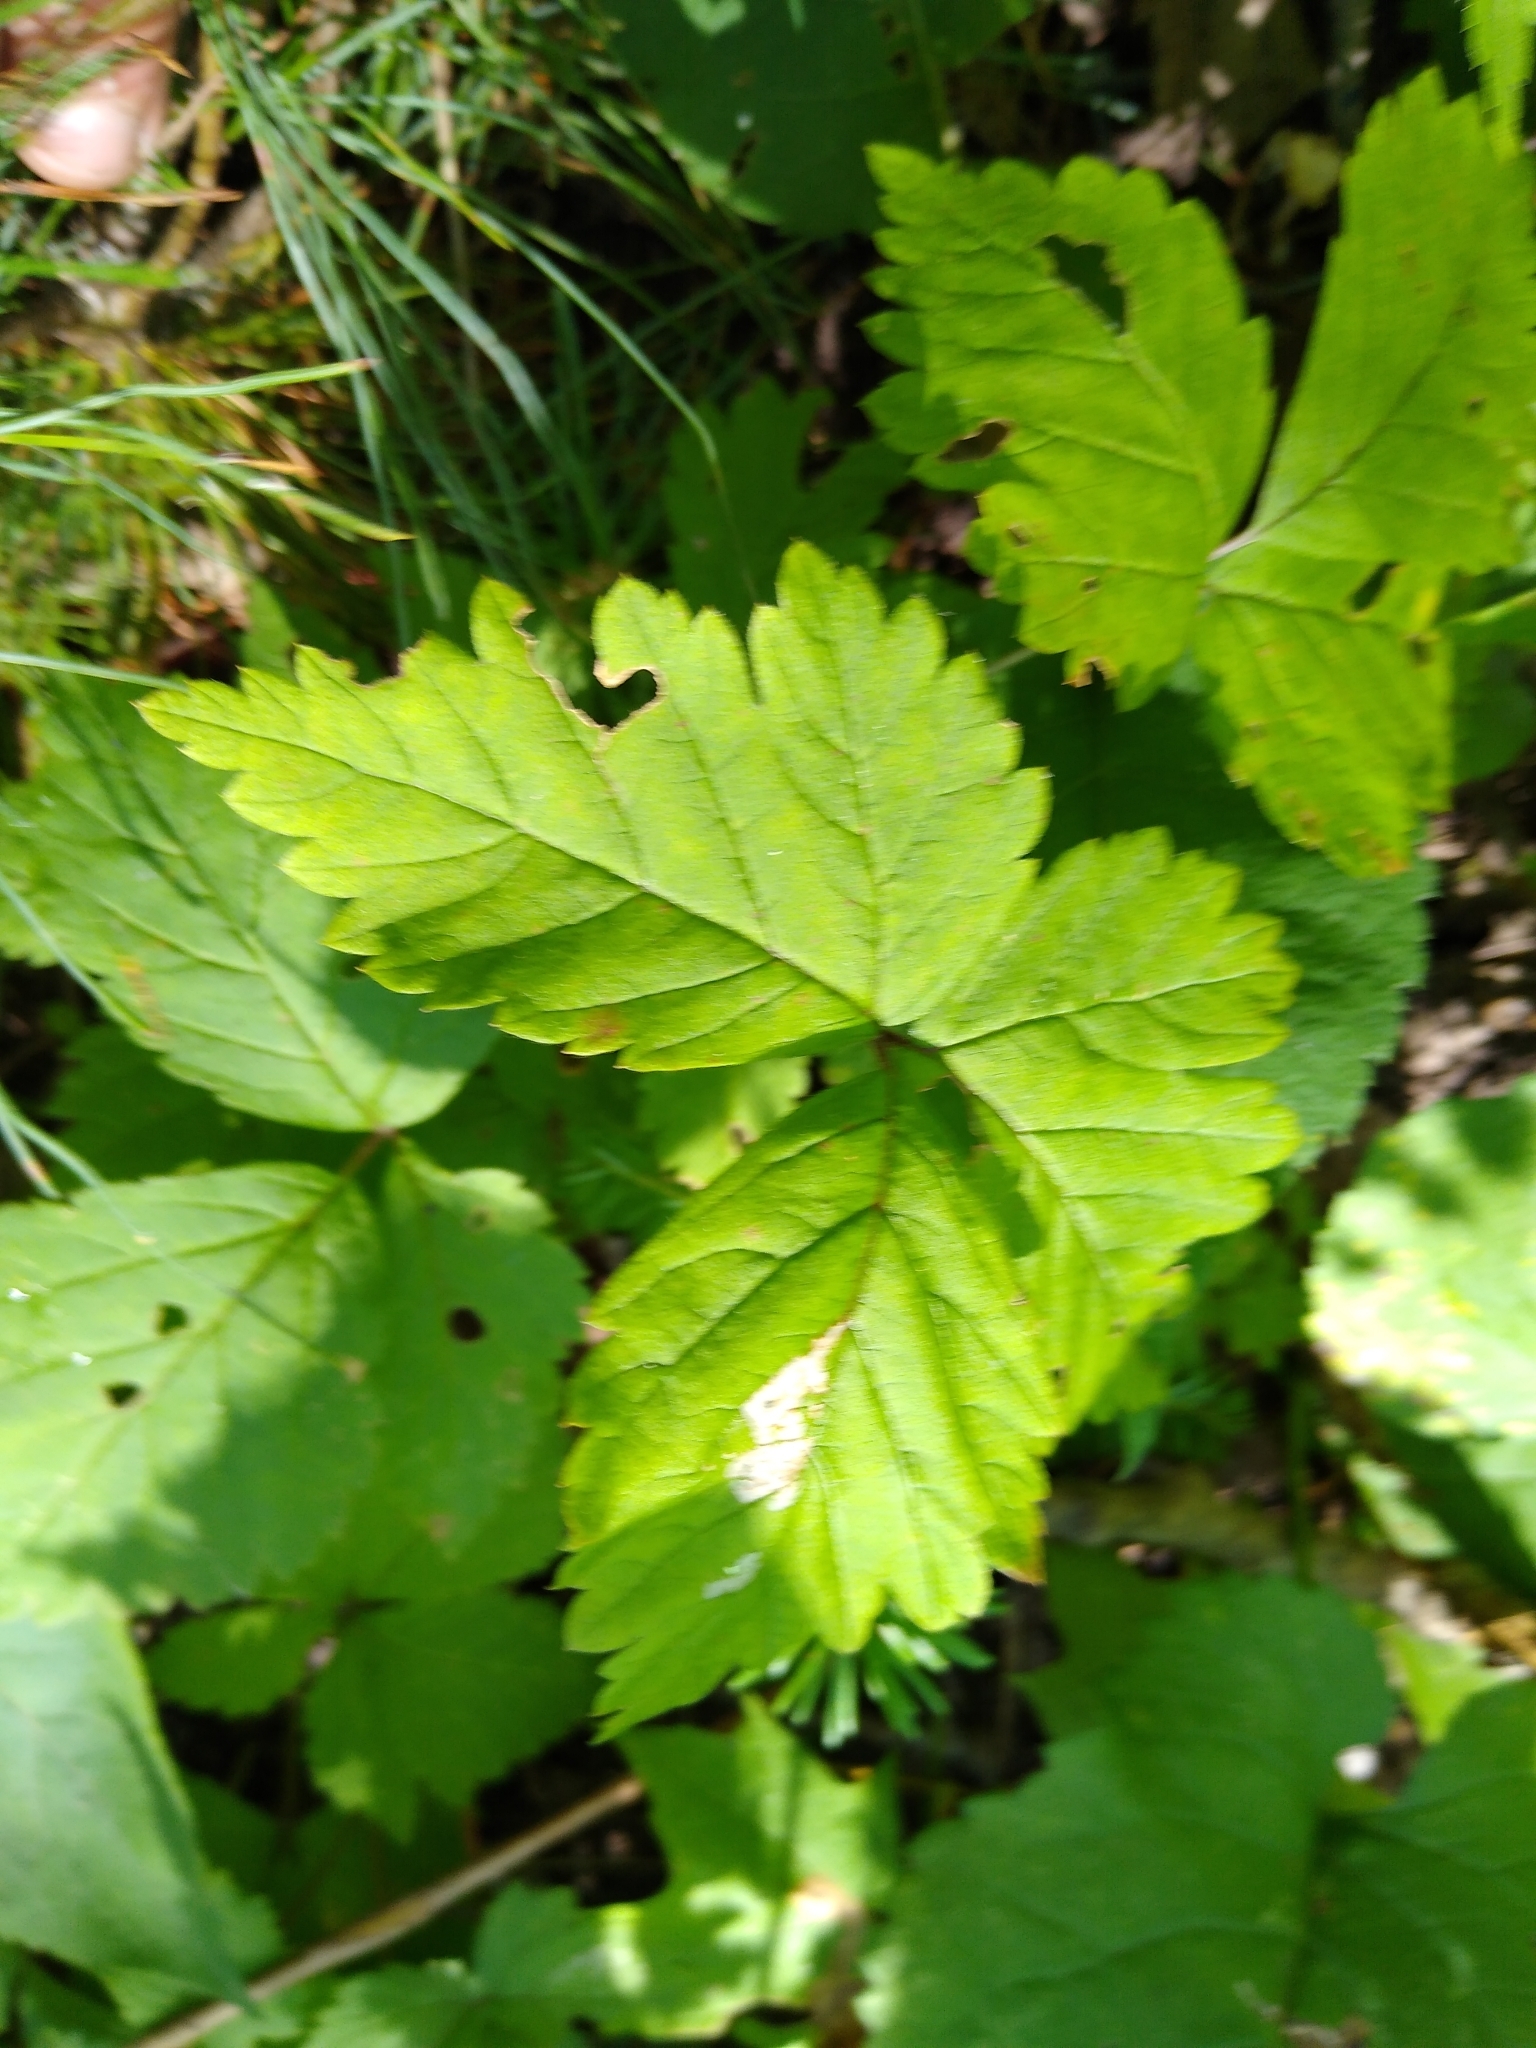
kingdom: Plantae
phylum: Tracheophyta
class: Magnoliopsida
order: Rosales
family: Rosaceae
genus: Rubus
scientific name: Rubus pubescens
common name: Dwarf raspberry
